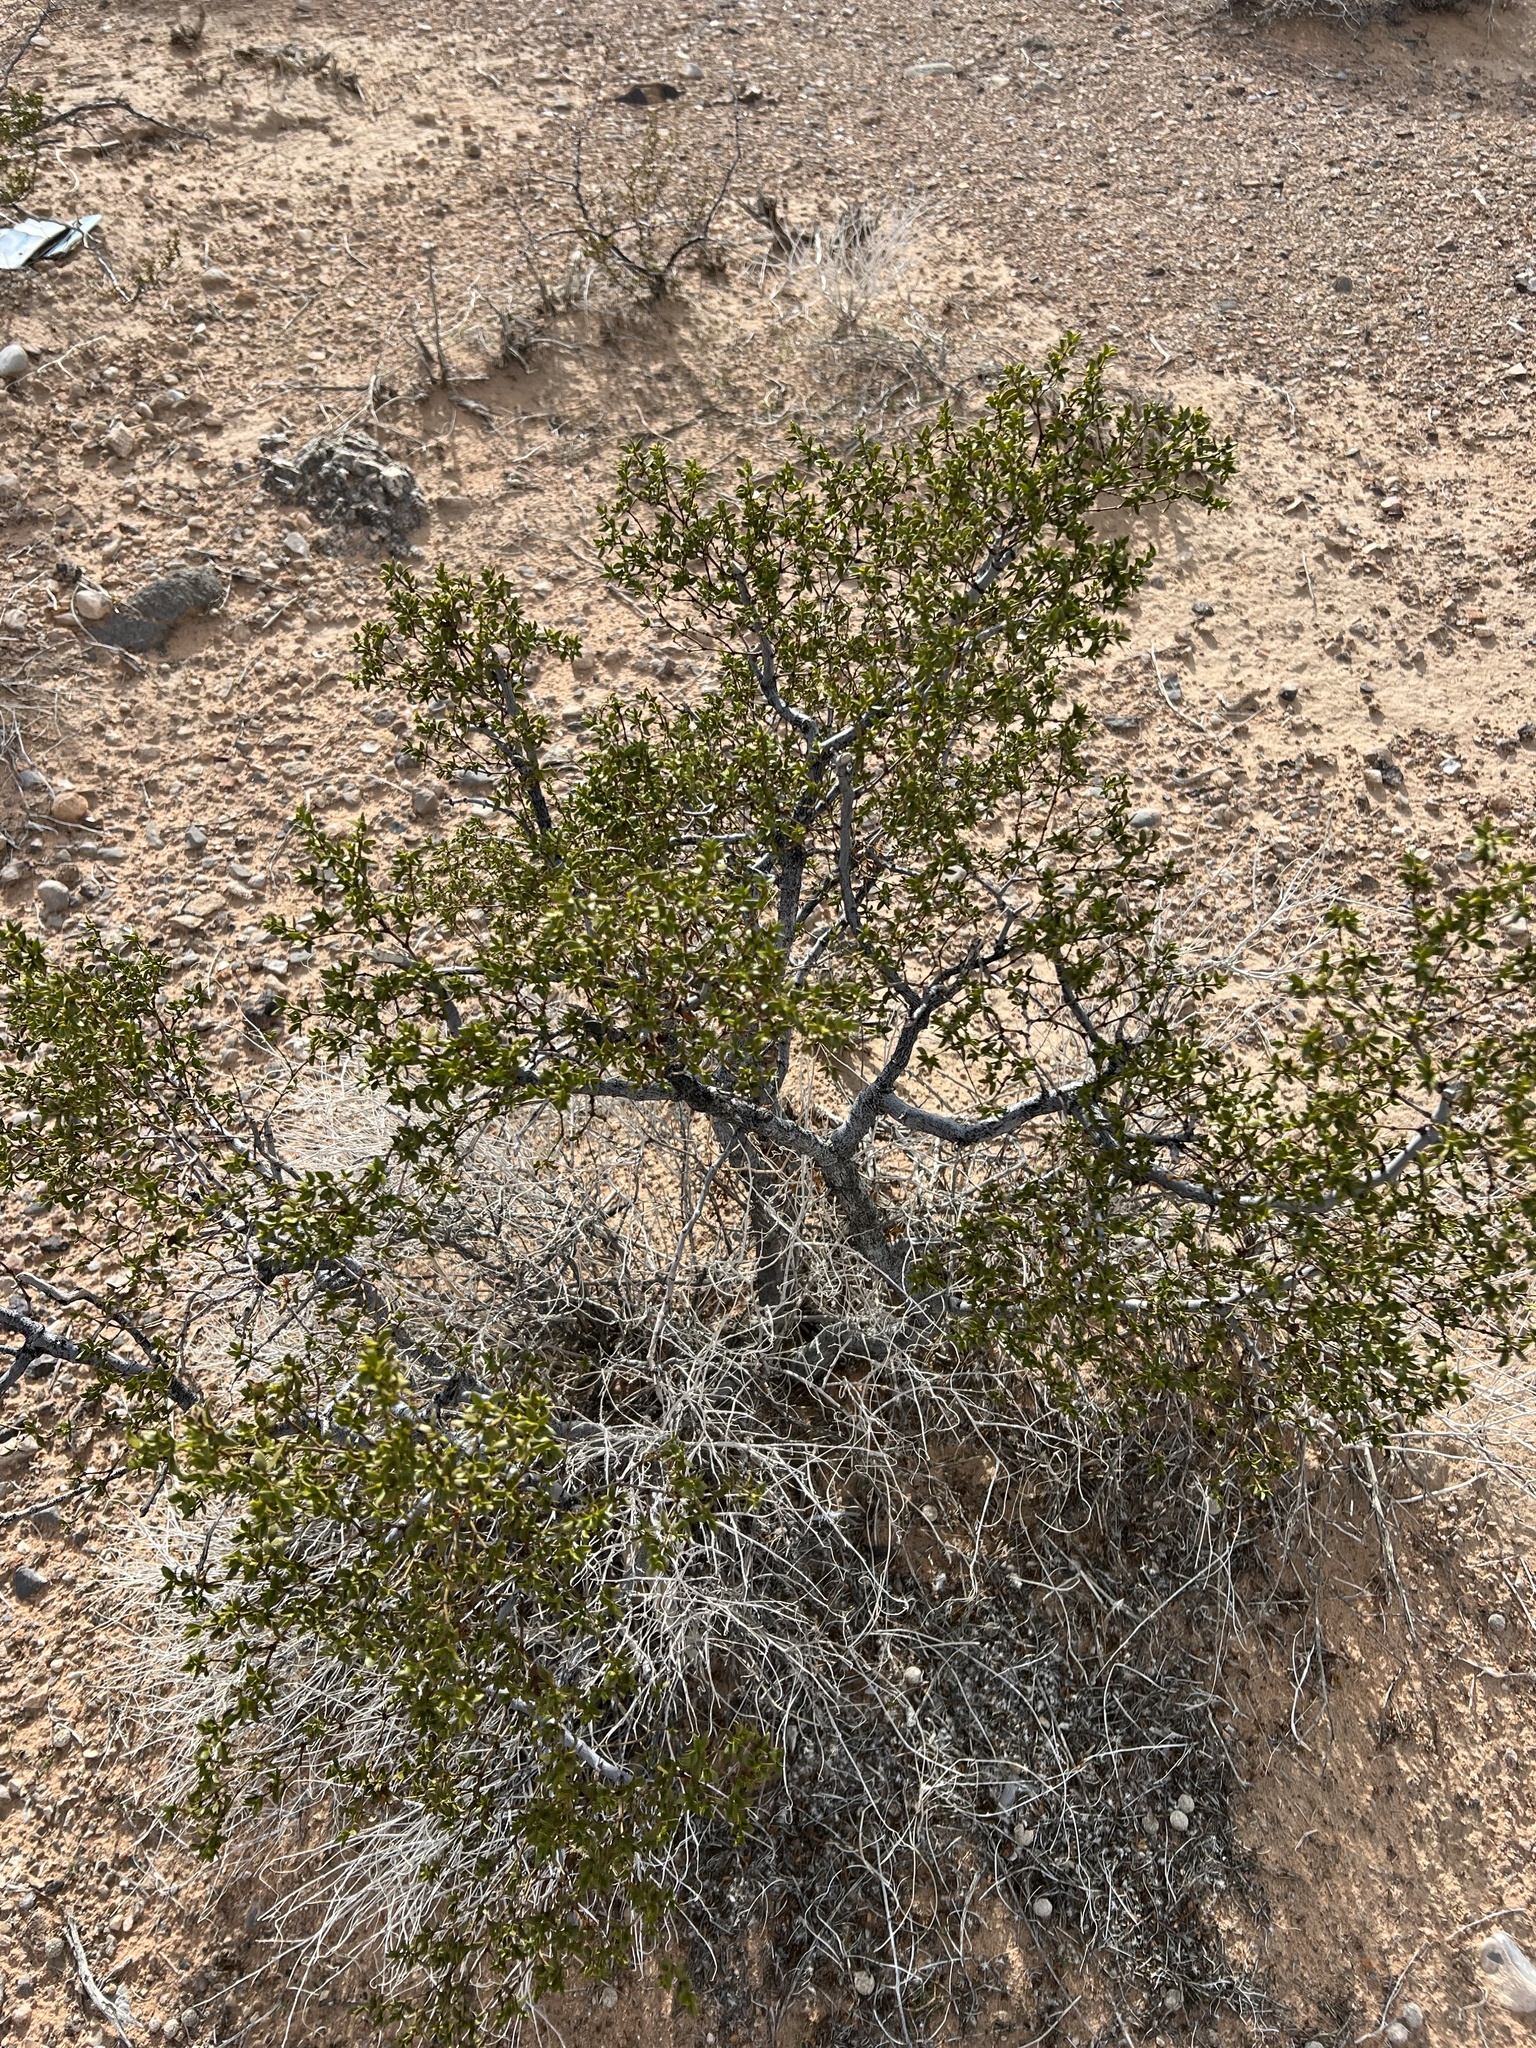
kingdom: Plantae
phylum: Tracheophyta
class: Magnoliopsida
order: Zygophyllales
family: Zygophyllaceae
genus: Larrea
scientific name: Larrea tridentata
